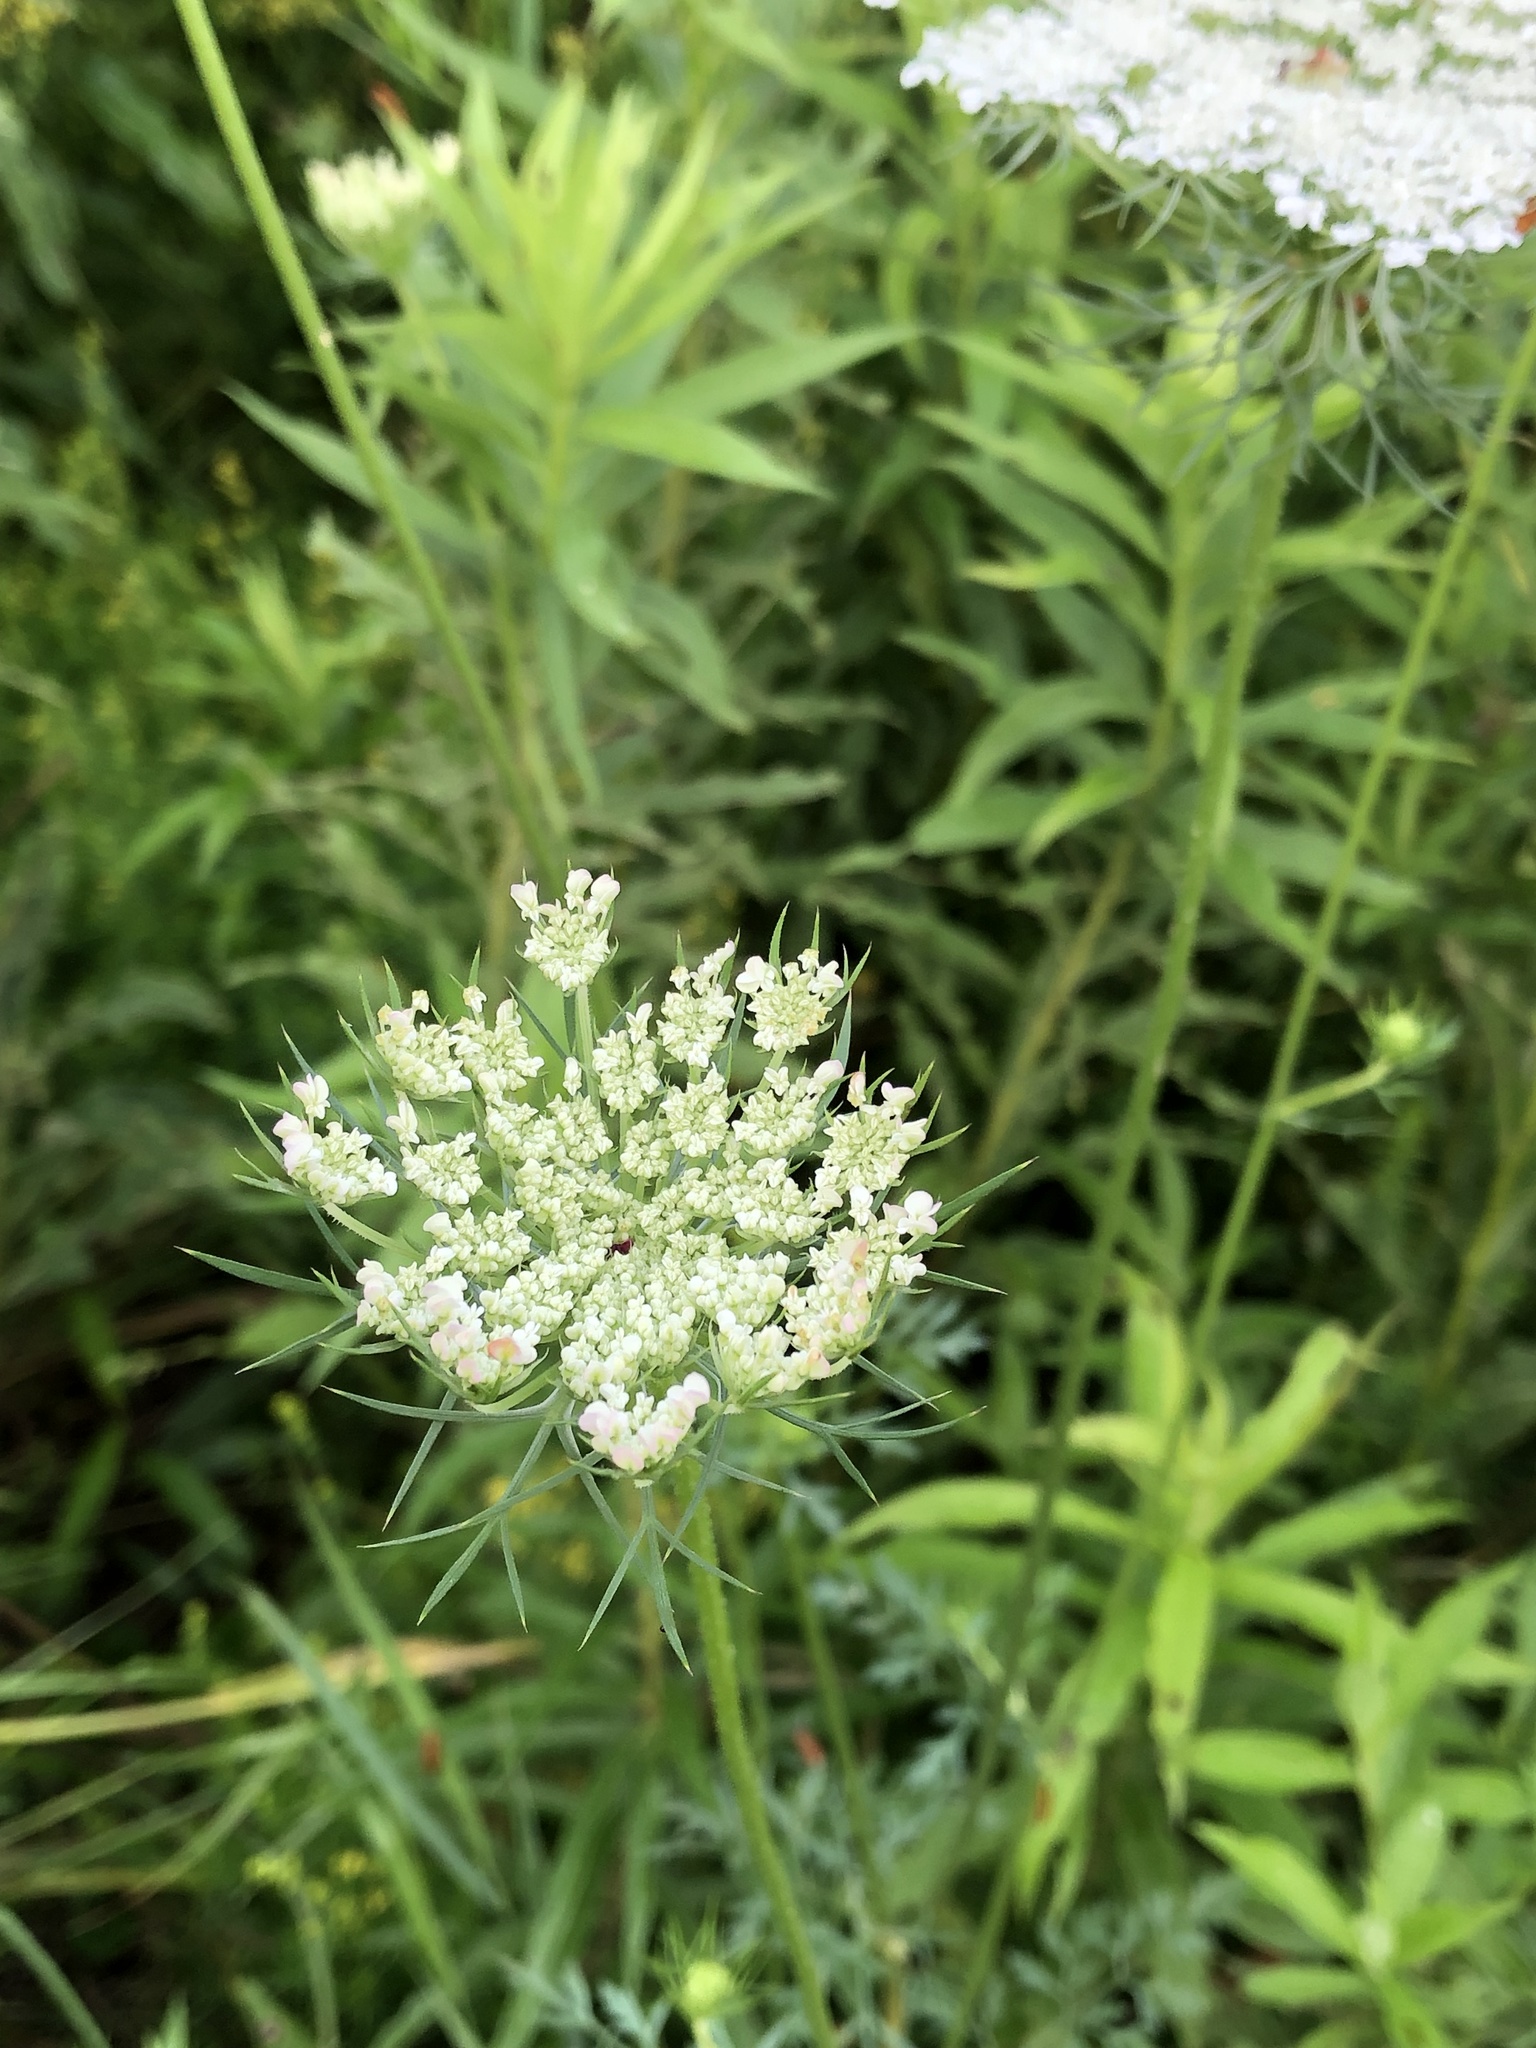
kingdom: Plantae
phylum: Tracheophyta
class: Magnoliopsida
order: Apiales
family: Apiaceae
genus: Daucus
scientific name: Daucus carota
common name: Wild carrot
